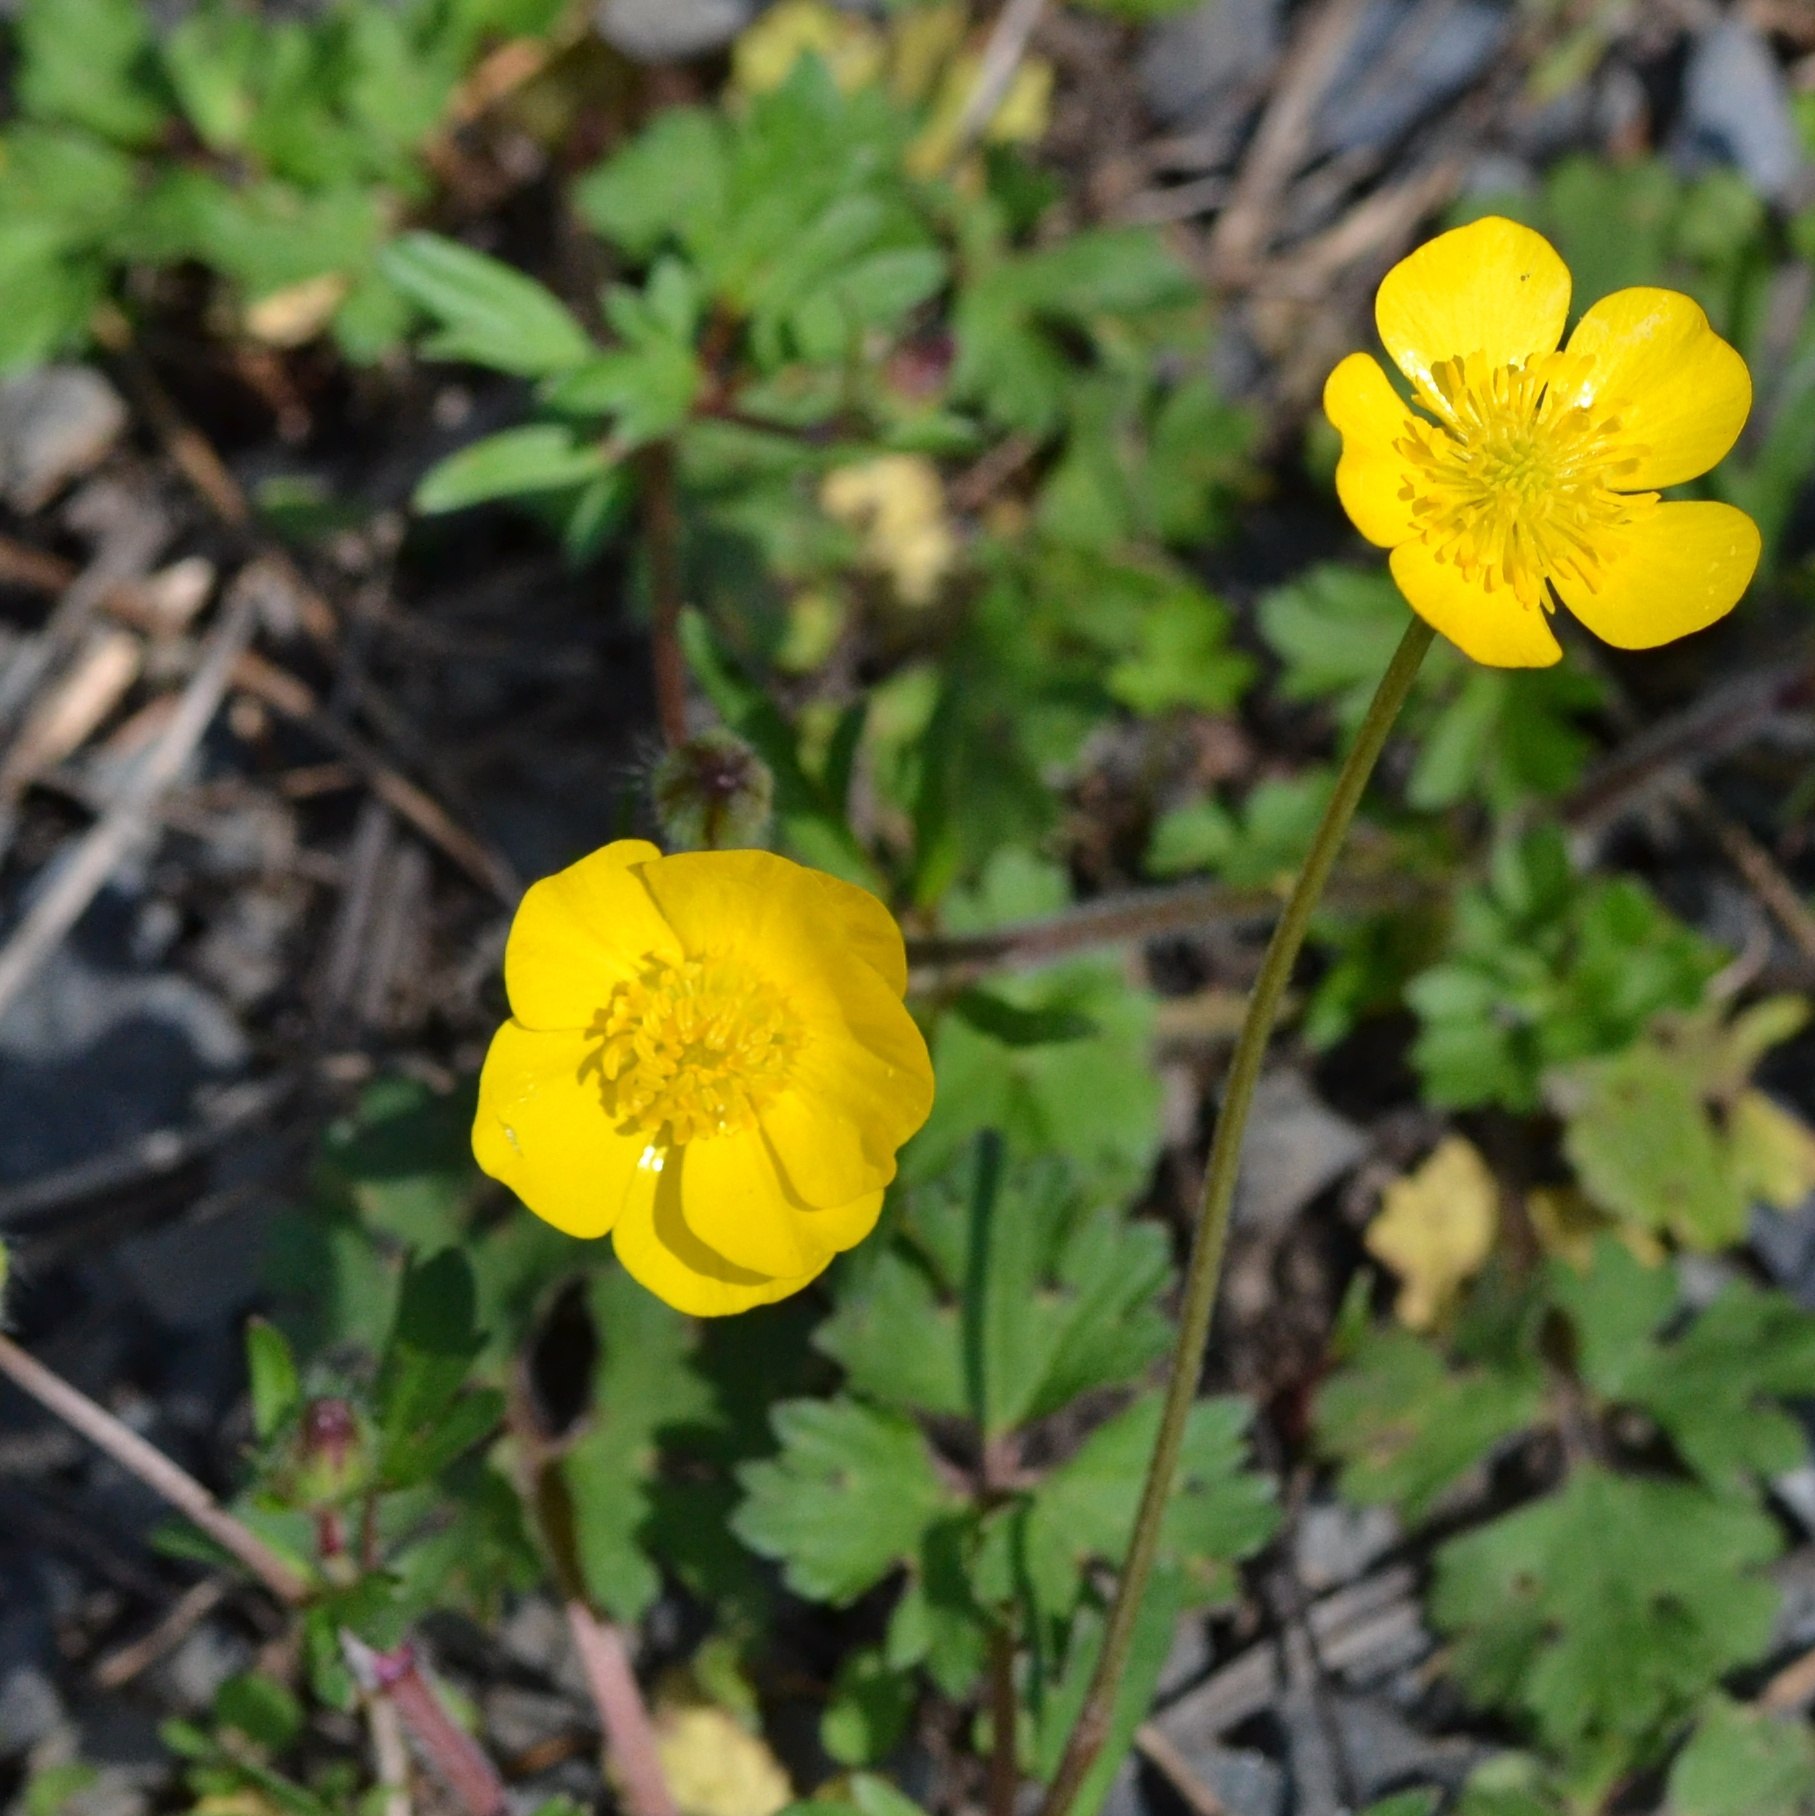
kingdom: Plantae
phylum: Tracheophyta
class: Magnoliopsida
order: Ranunculales
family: Ranunculaceae
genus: Ranunculus
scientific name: Ranunculus bulbosus
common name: Bulbous buttercup
